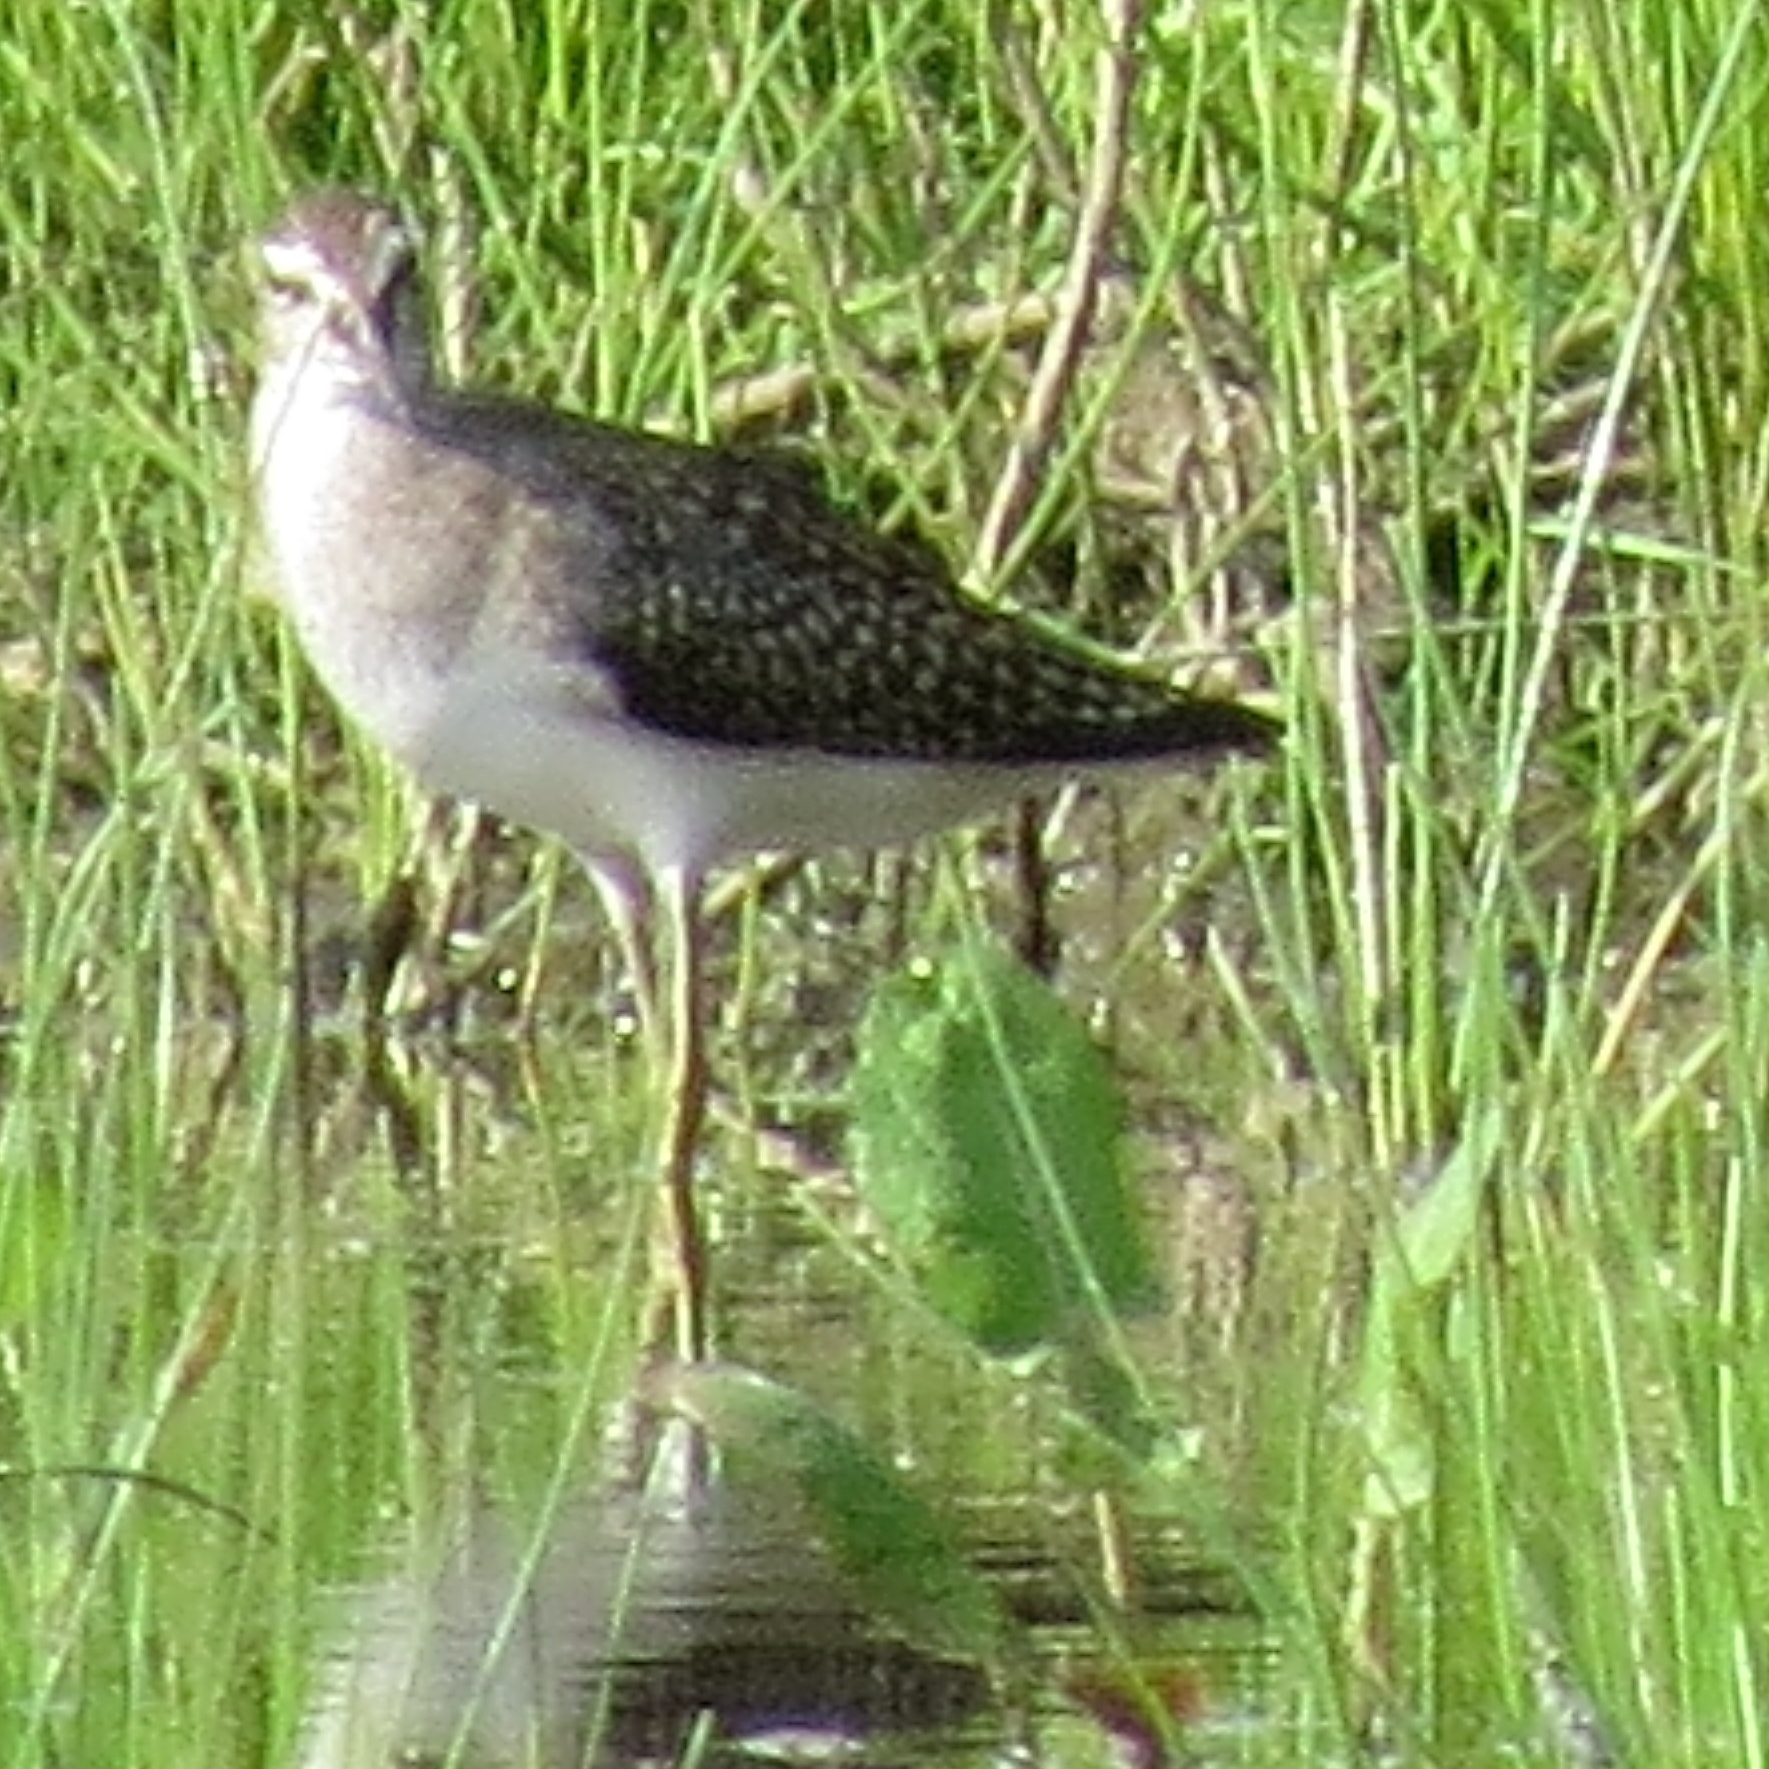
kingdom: Animalia
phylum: Chordata
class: Aves
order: Charadriiformes
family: Scolopacidae
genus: Tringa
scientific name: Tringa ochropus
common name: Green sandpiper
